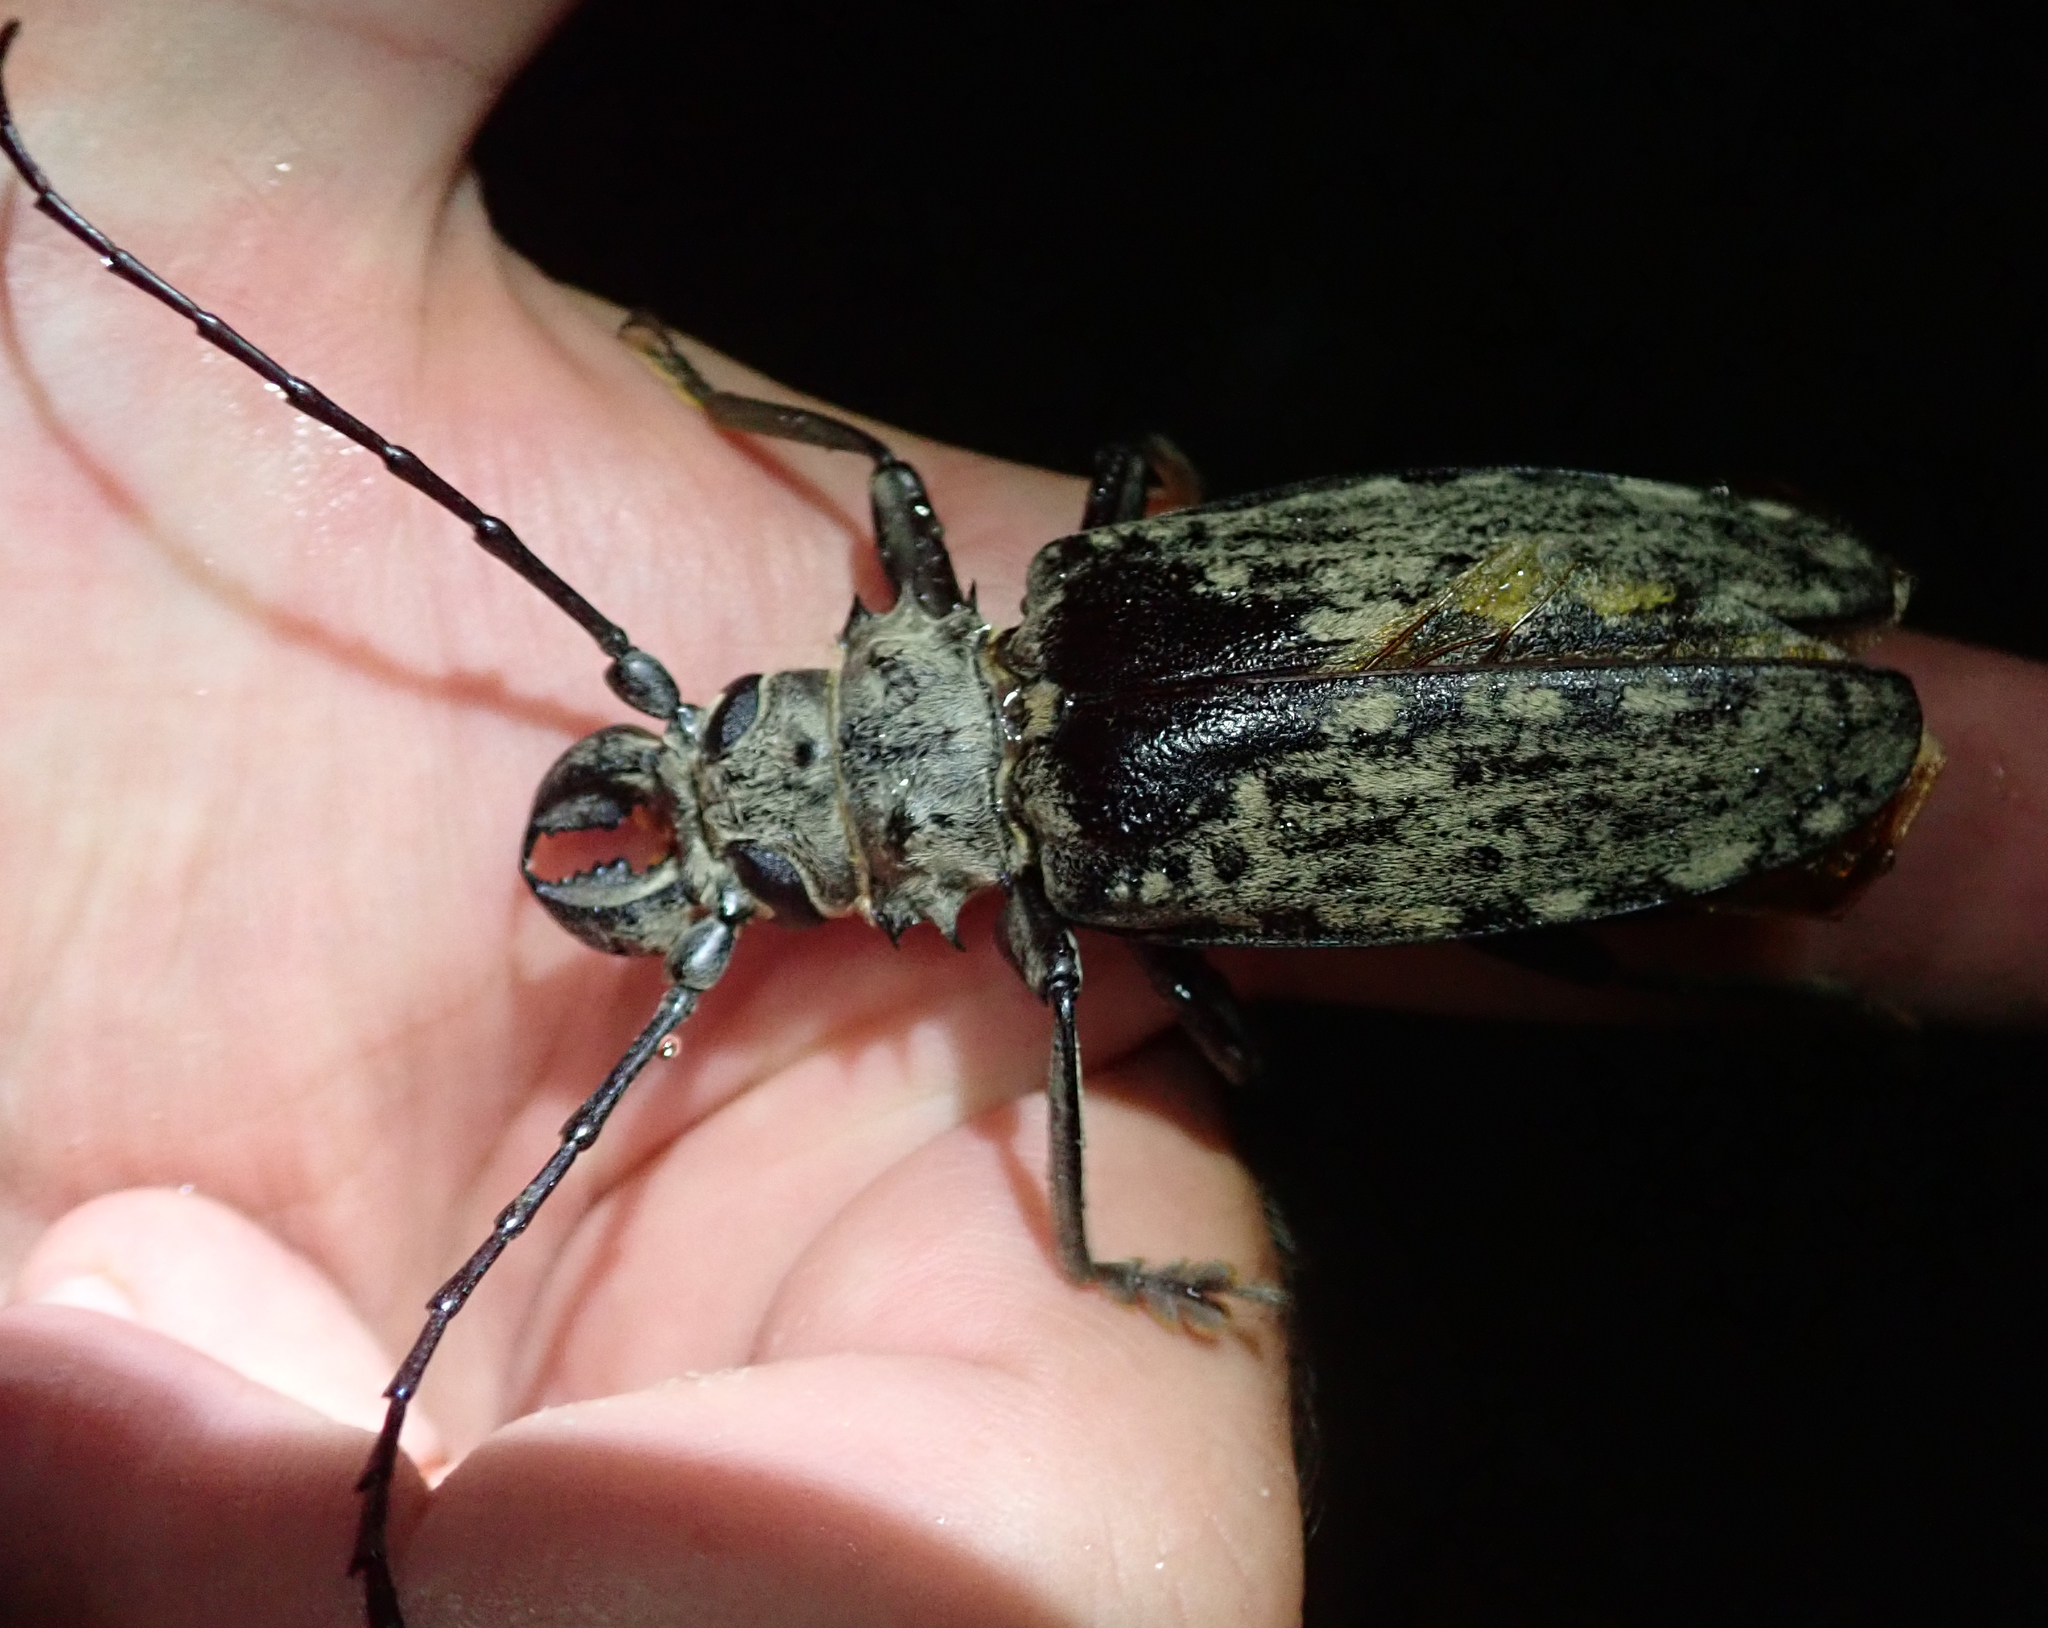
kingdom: Animalia
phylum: Arthropoda
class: Insecta
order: Coleoptera
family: Cerambycidae
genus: Tithoes
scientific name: Tithoes confinis
